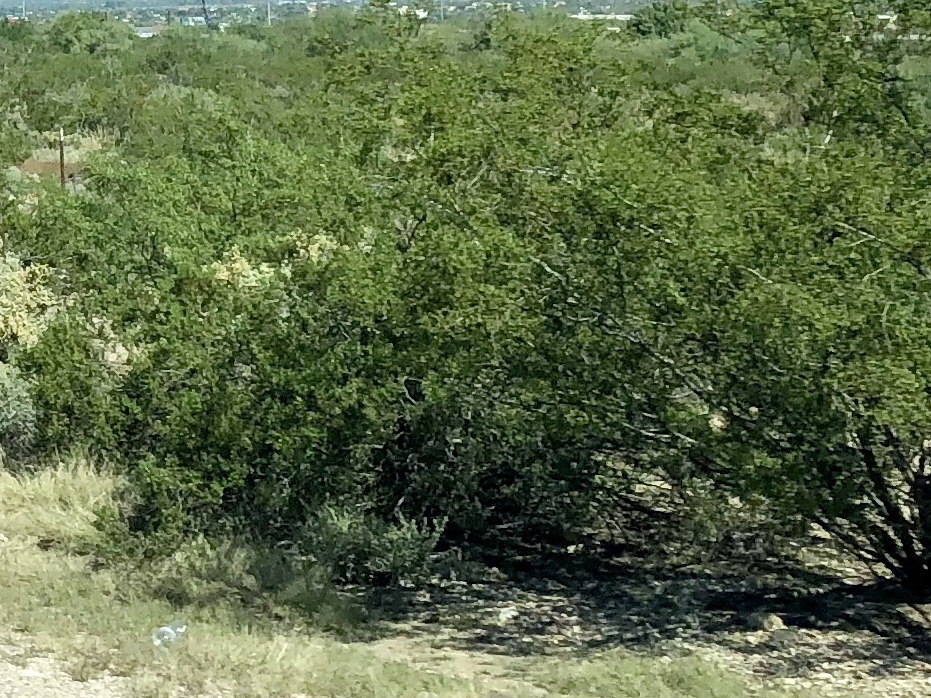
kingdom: Plantae
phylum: Tracheophyta
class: Magnoliopsida
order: Zygophyllales
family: Zygophyllaceae
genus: Larrea
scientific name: Larrea tridentata
